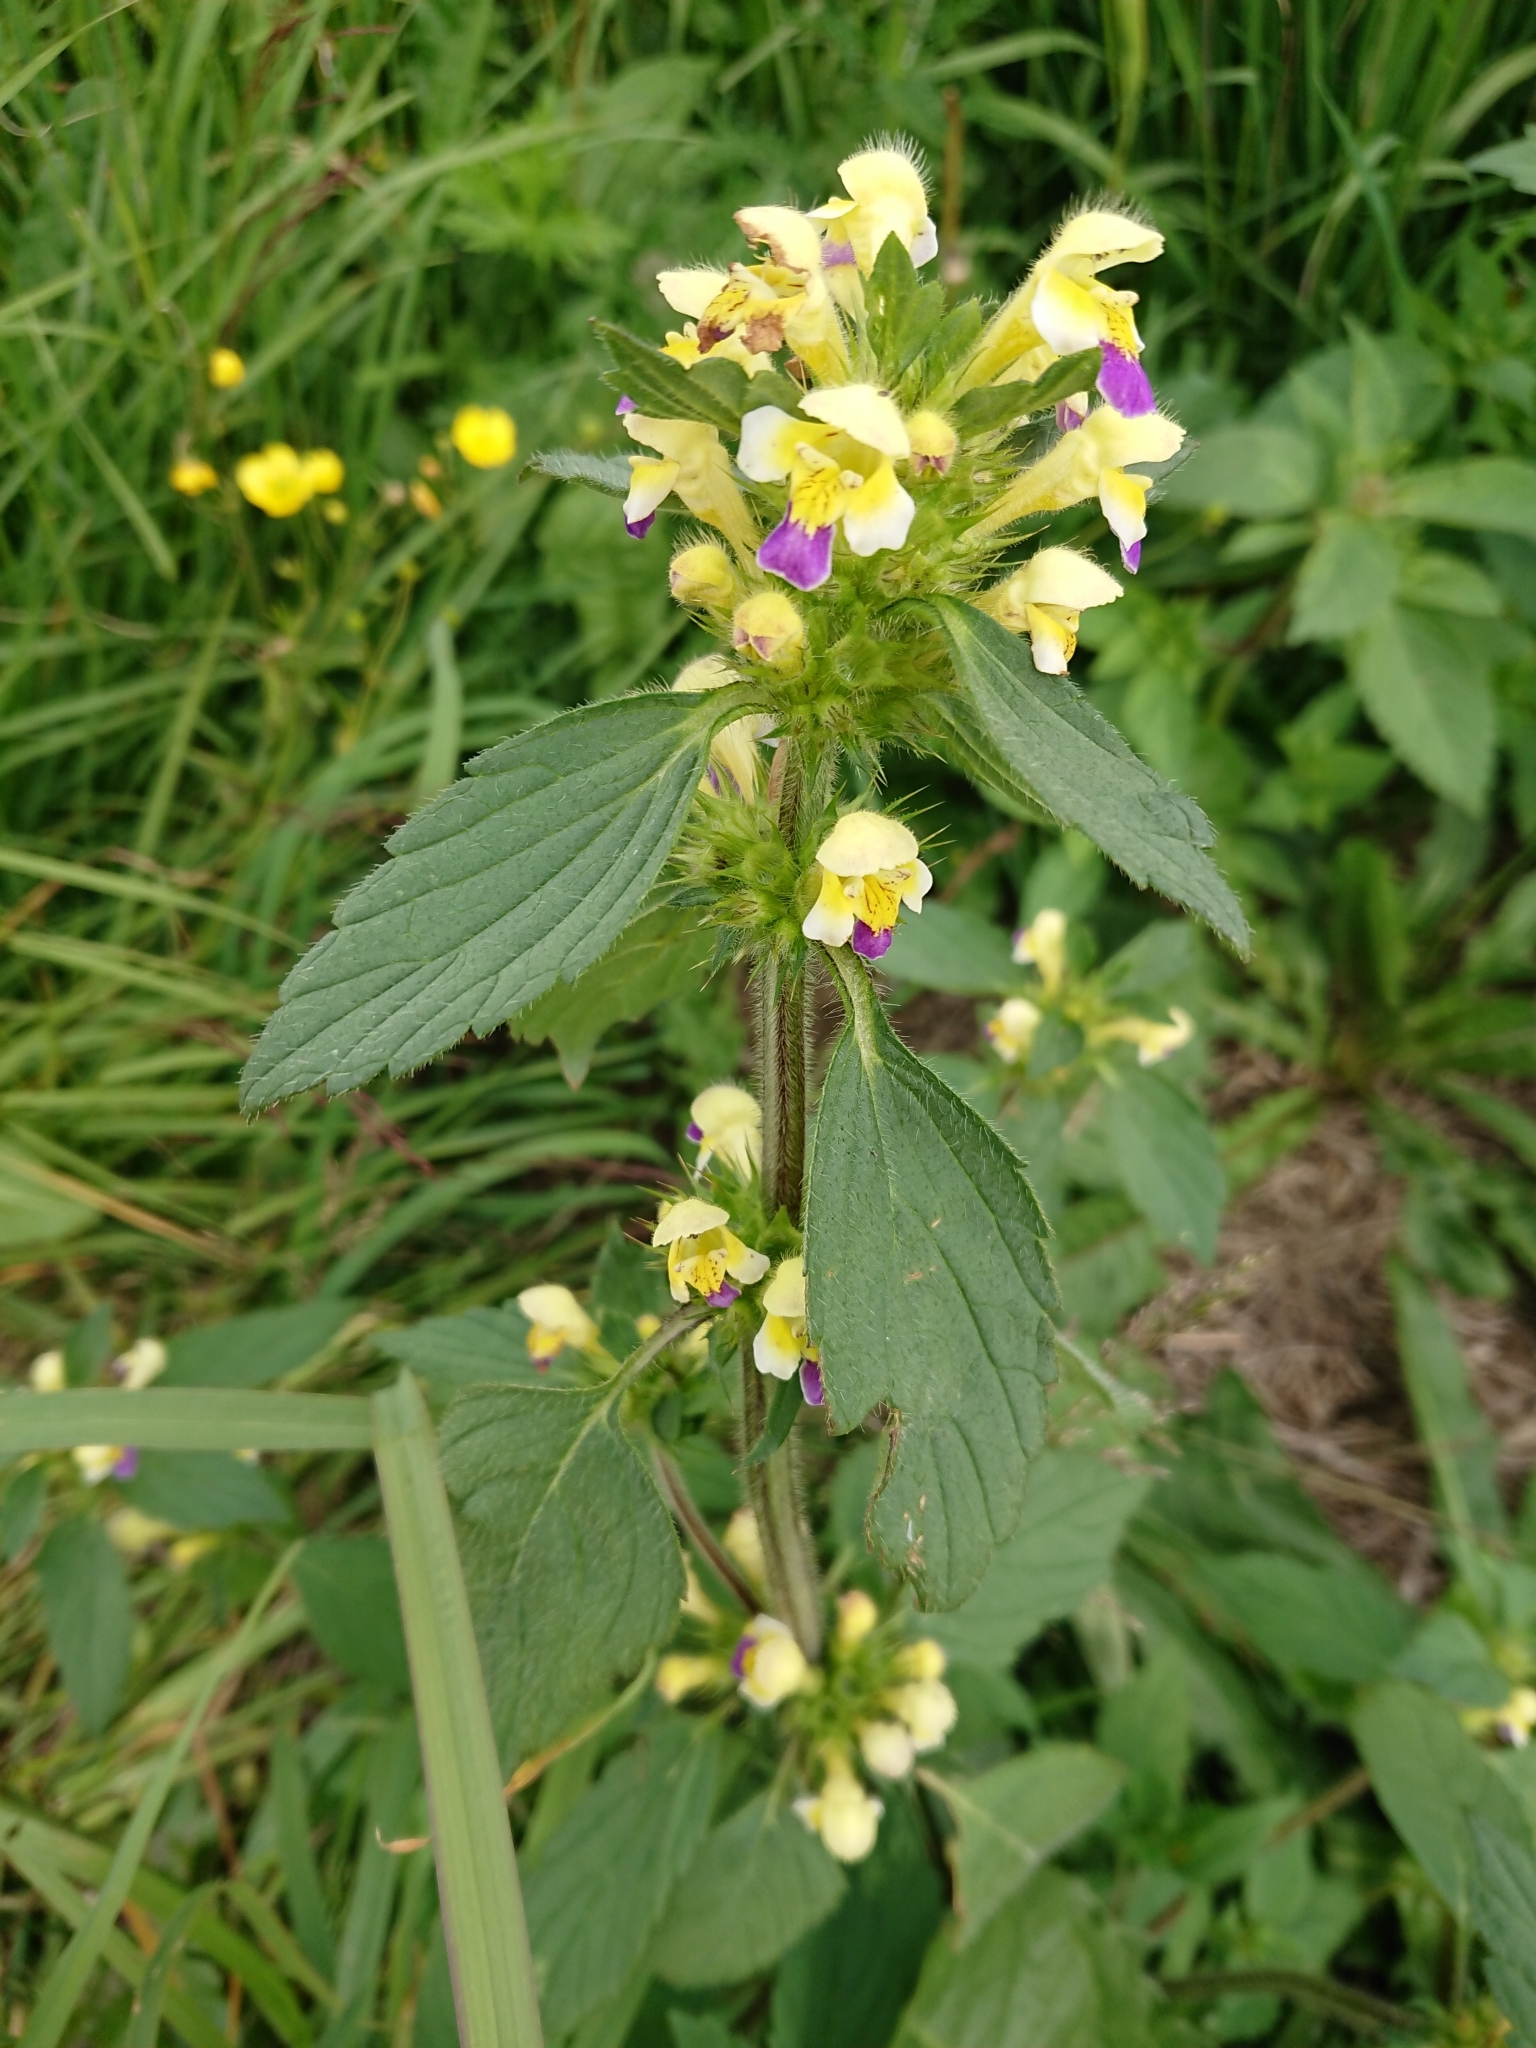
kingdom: Plantae
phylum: Tracheophyta
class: Magnoliopsida
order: Lamiales
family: Lamiaceae
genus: Galeopsis
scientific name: Galeopsis speciosa
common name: Large-flowered hemp-nettle
